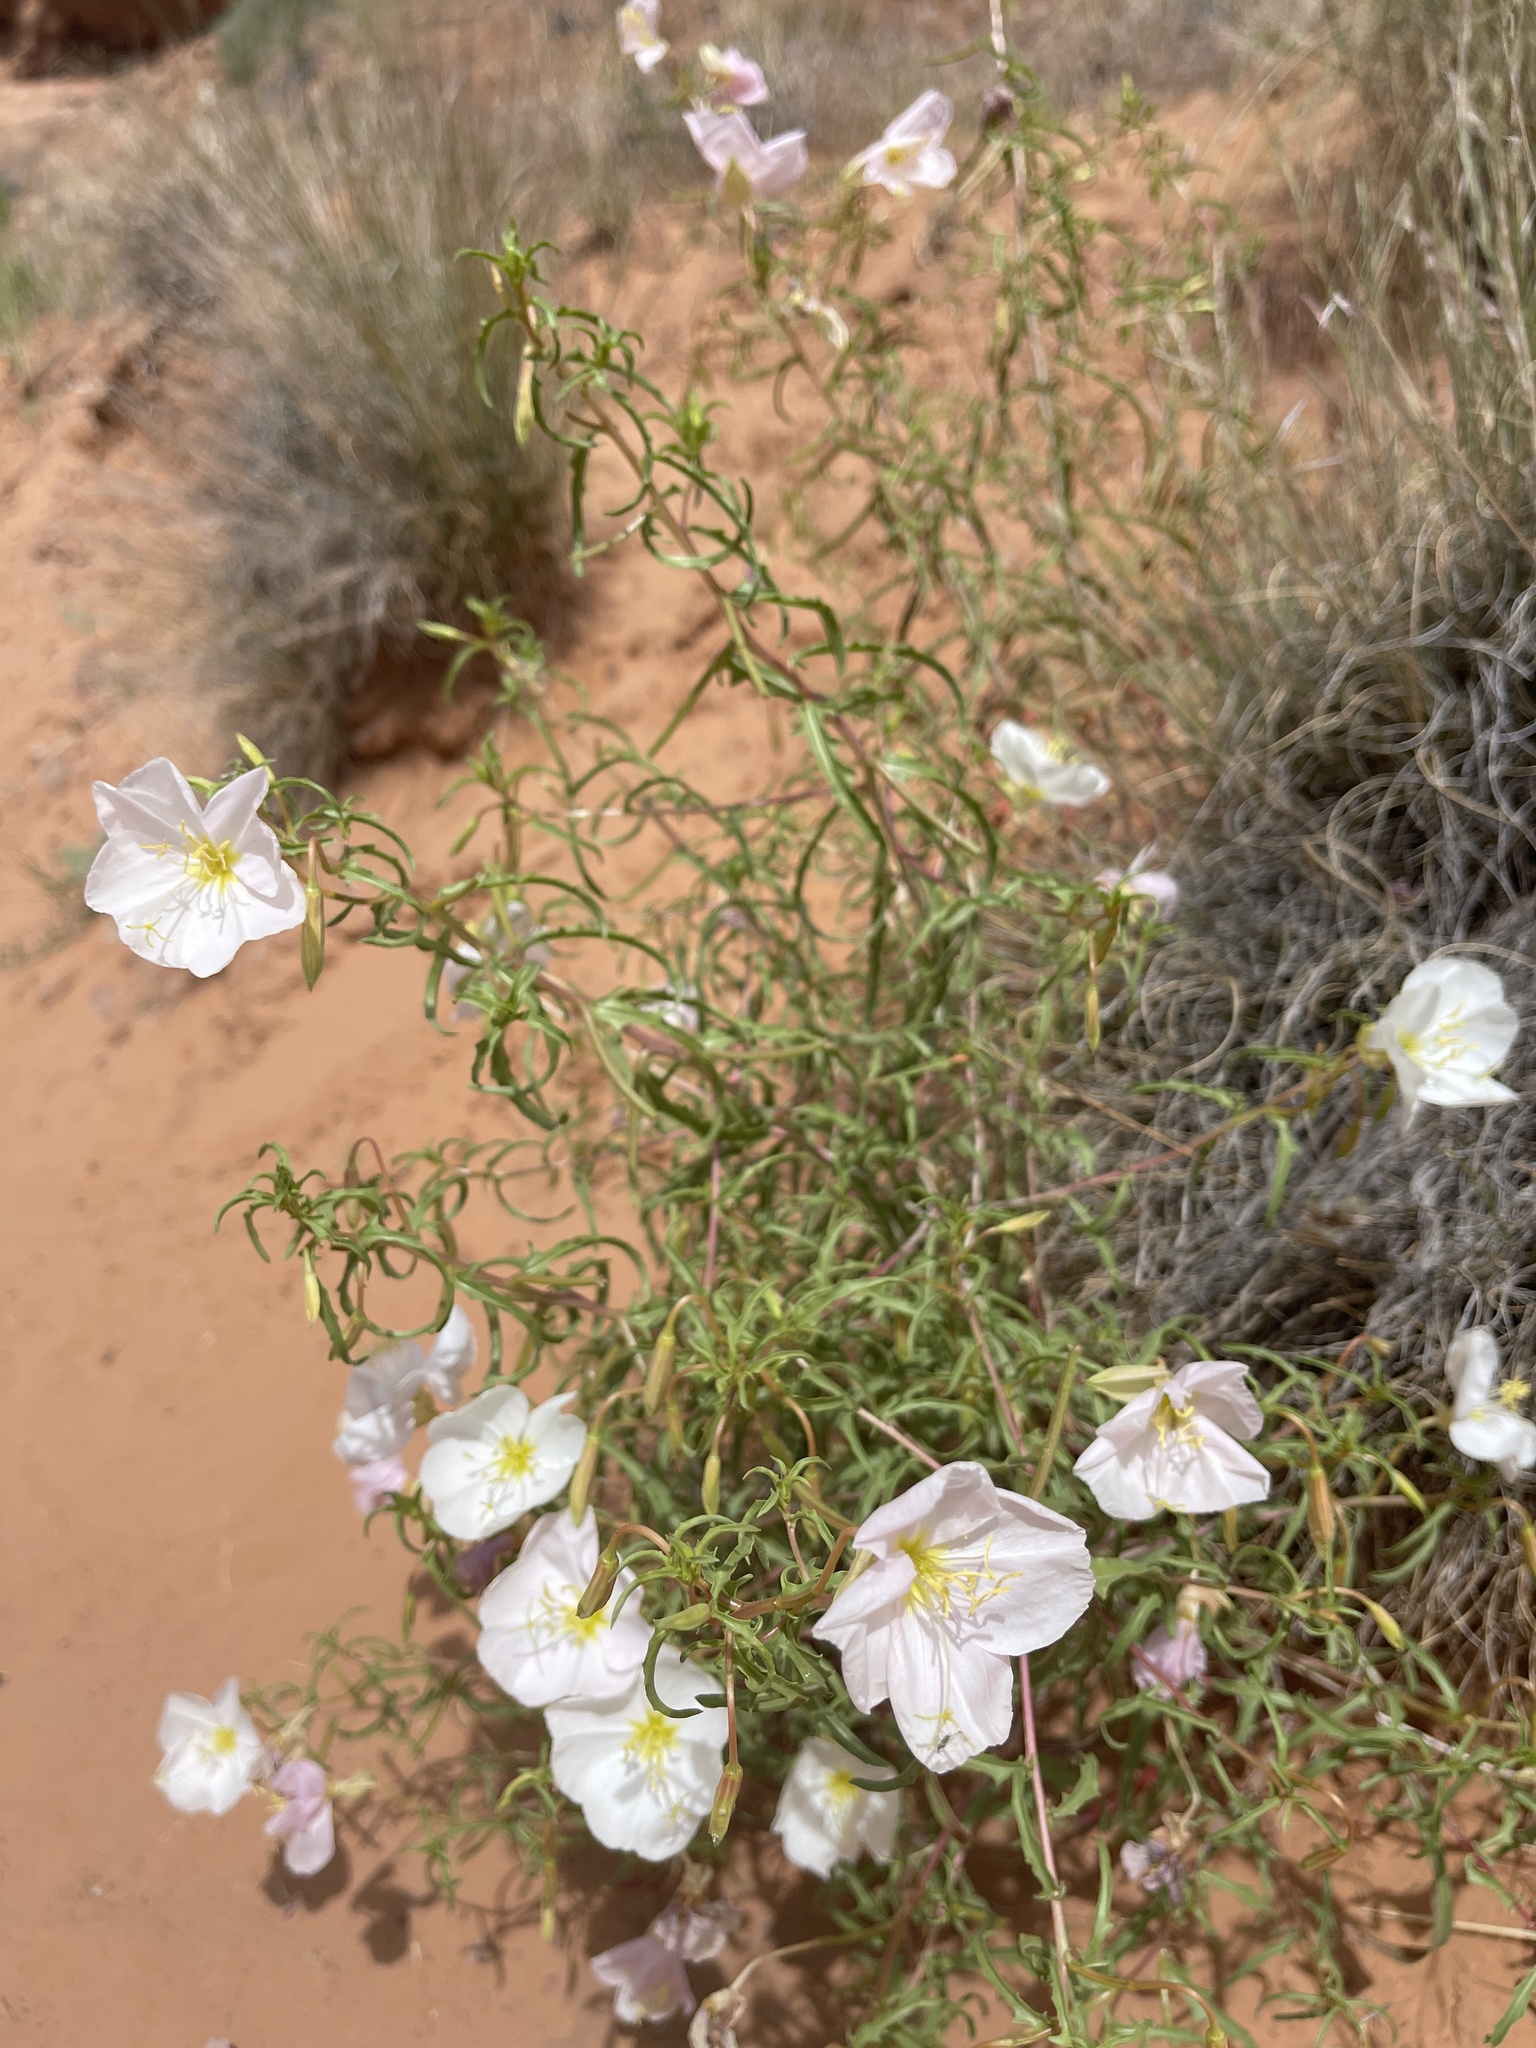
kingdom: Plantae
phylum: Tracheophyta
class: Magnoliopsida
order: Myrtales
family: Onagraceae
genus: Oenothera
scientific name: Oenothera pallida
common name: Pale evening-primrose
